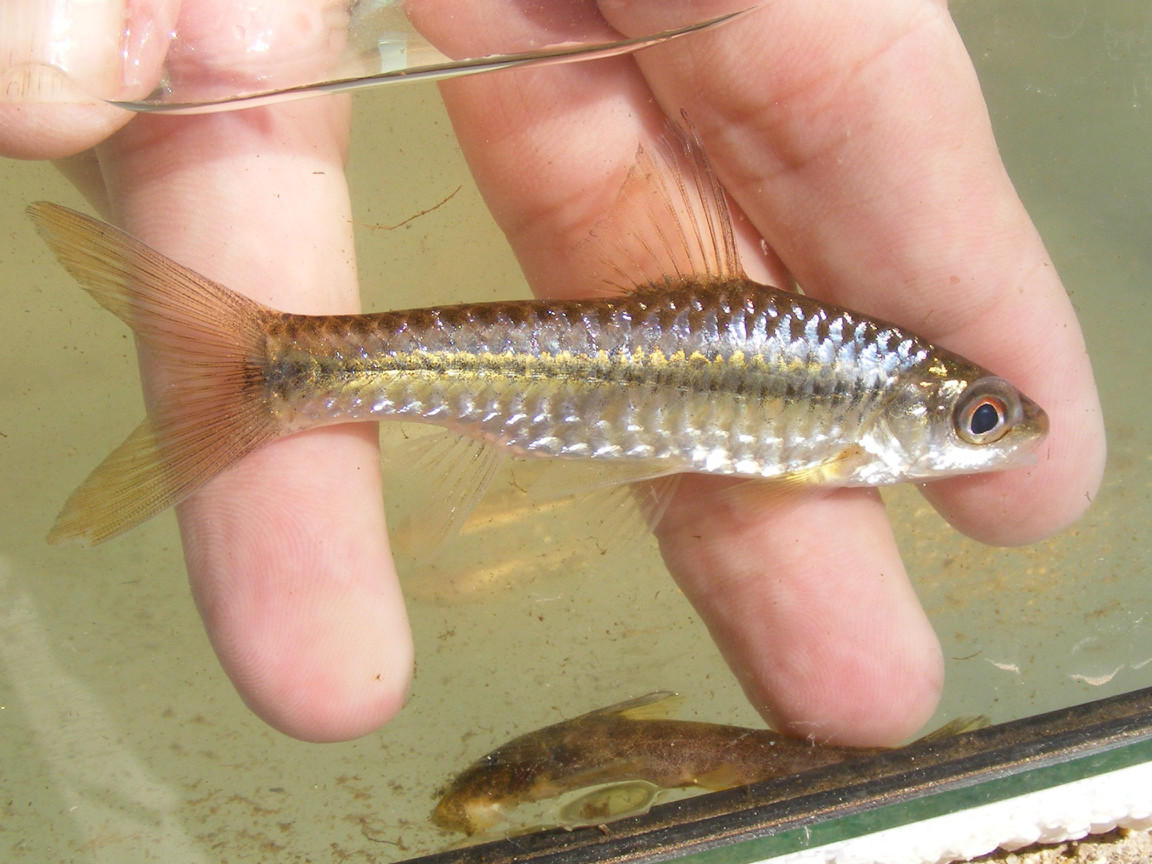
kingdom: Animalia
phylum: Chordata
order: Cypriniformes
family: Cyprinidae
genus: Enteromius
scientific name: Enteromius radiatus
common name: Beira barb
